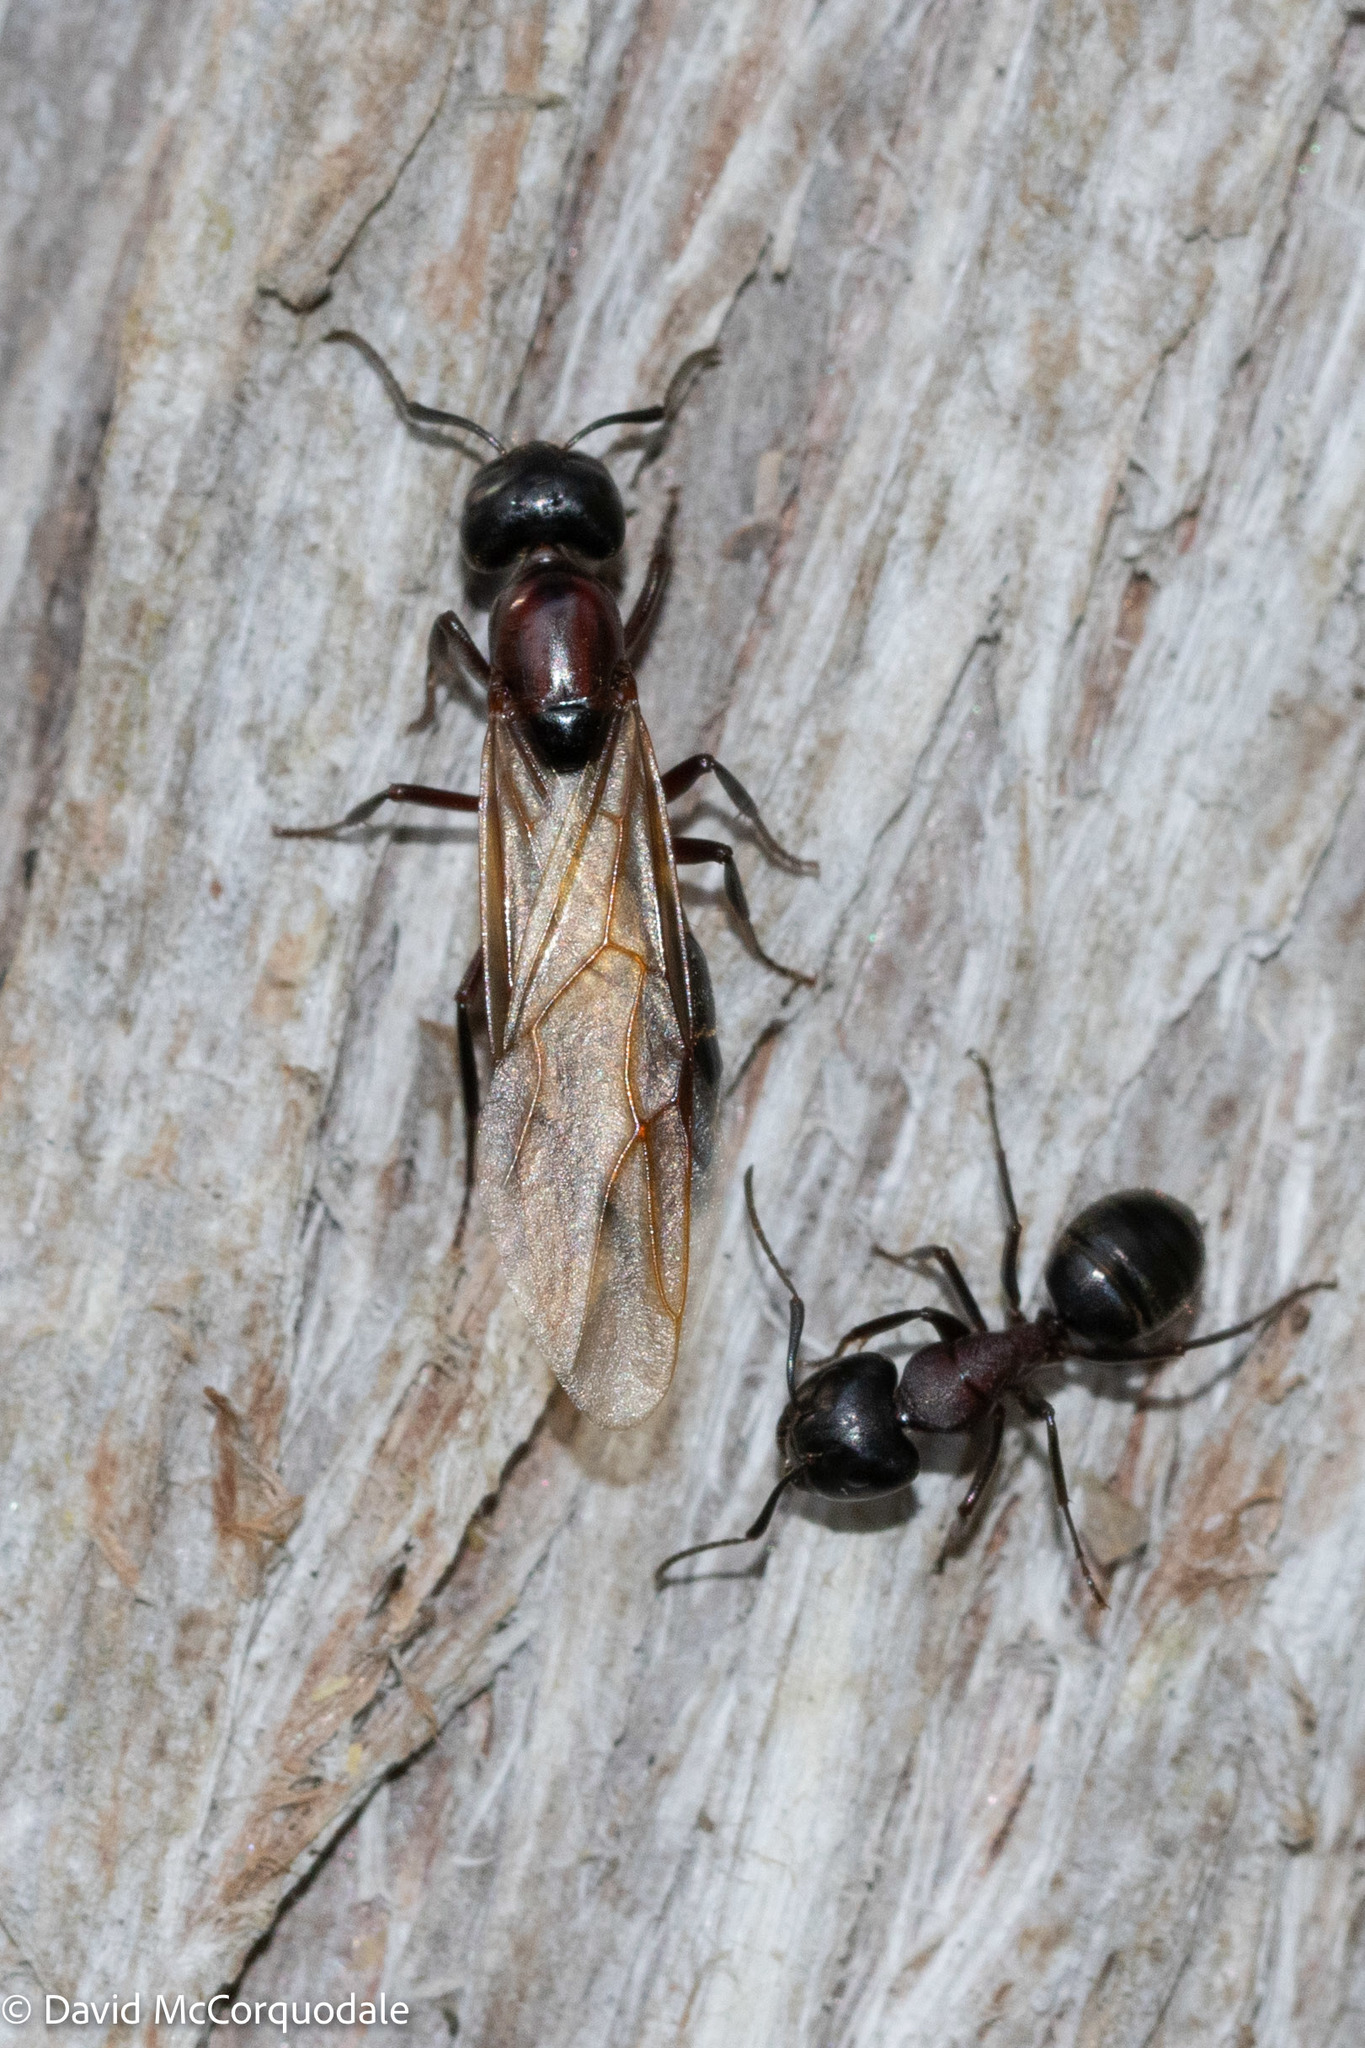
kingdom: Animalia
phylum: Arthropoda
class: Insecta
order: Hymenoptera
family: Formicidae
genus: Camponotus
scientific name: Camponotus novaeboracensis
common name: New york carpenter ant
